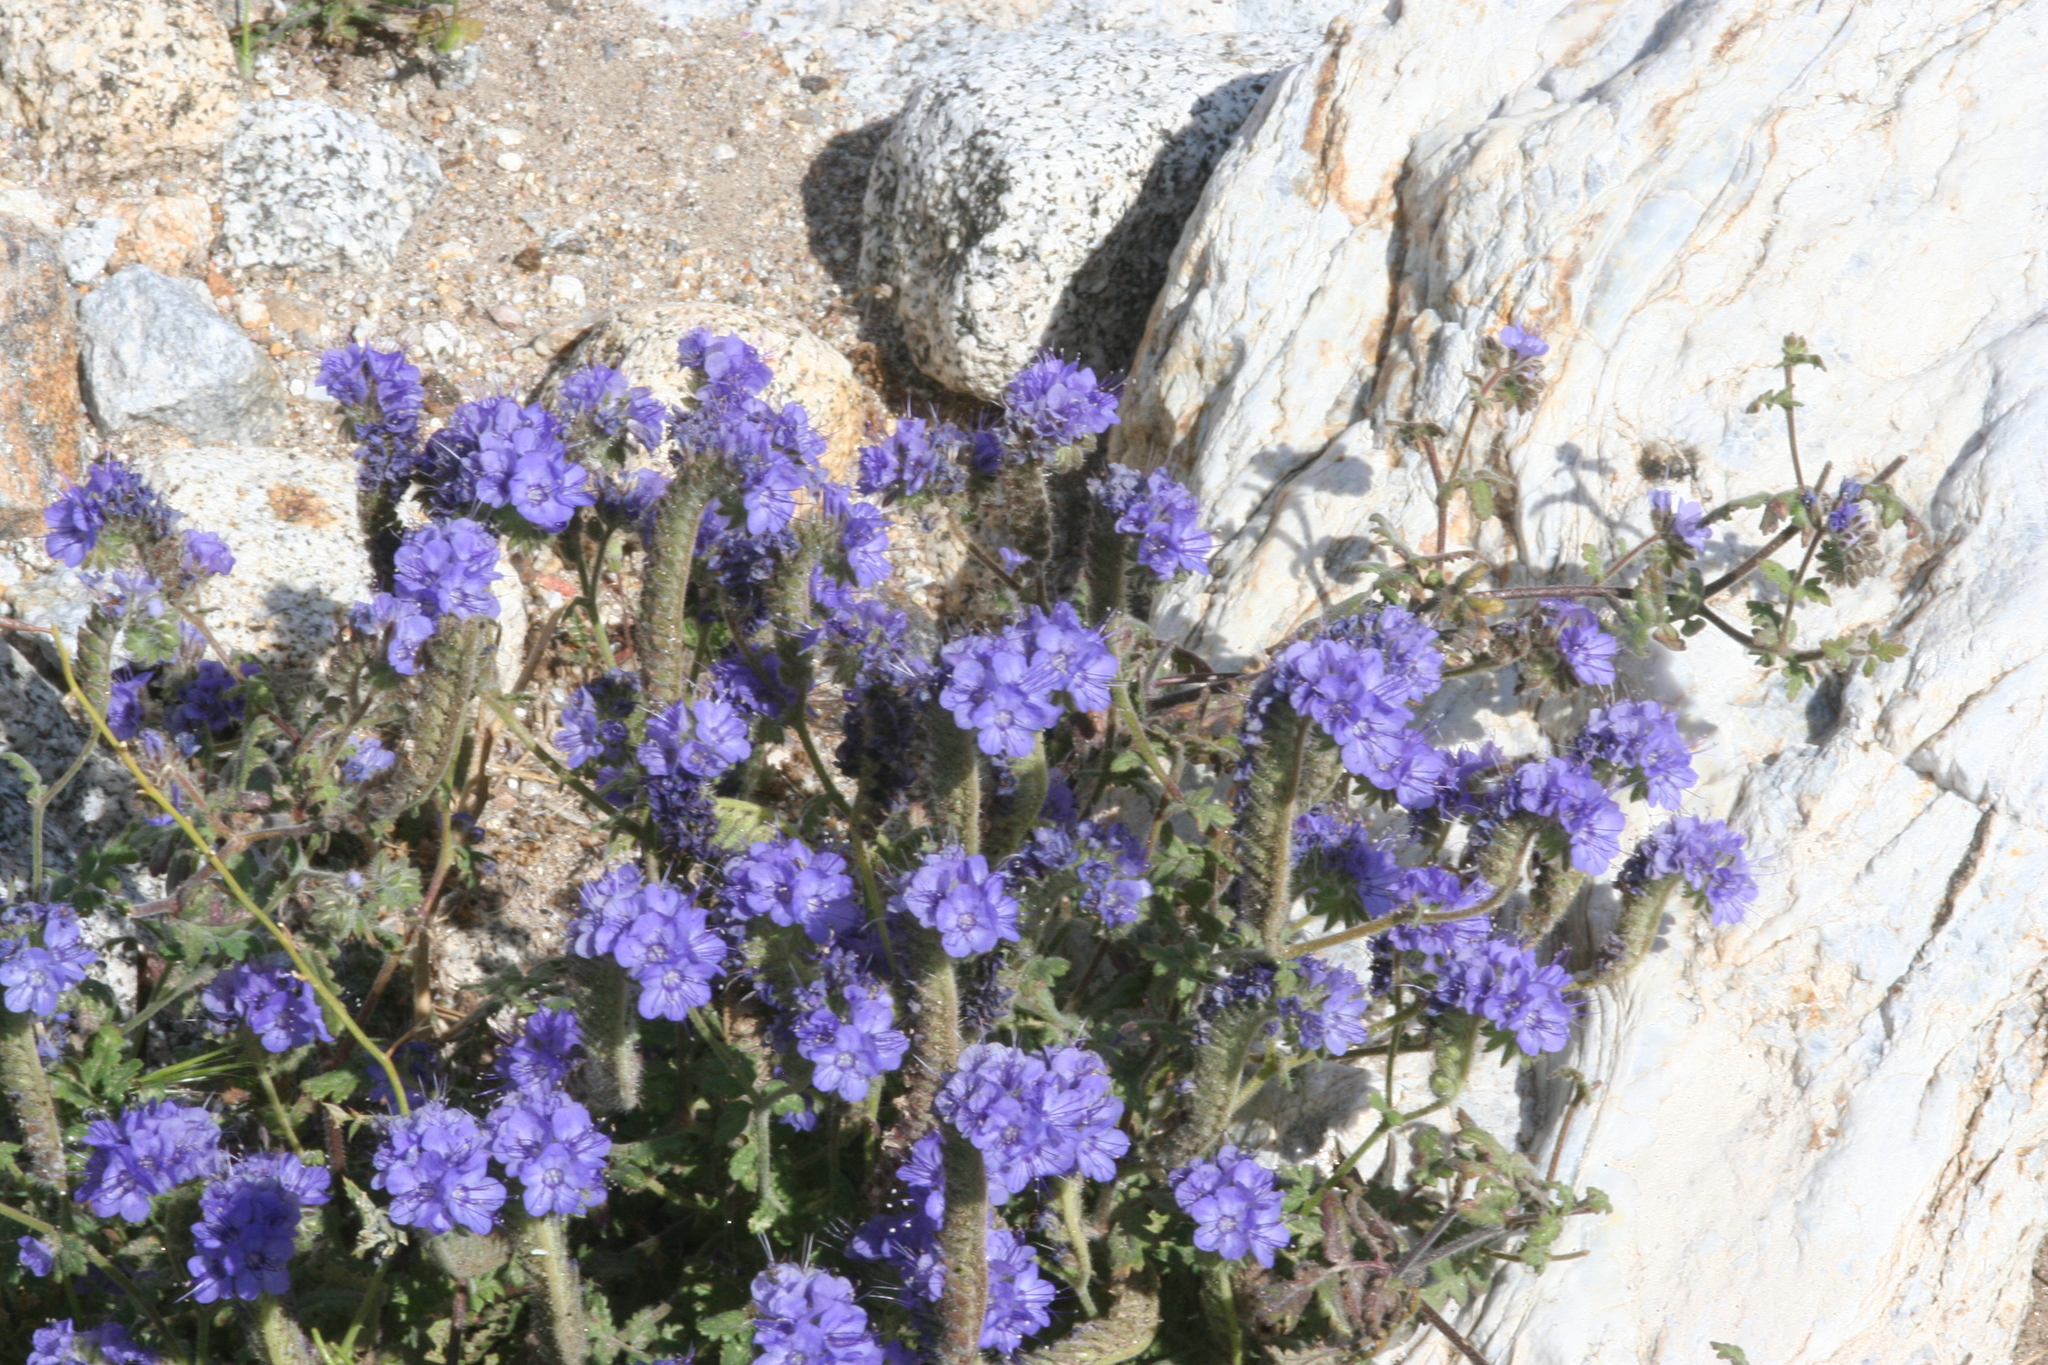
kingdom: Plantae
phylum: Tracheophyta
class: Magnoliopsida
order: Boraginales
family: Hydrophyllaceae
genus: Phacelia
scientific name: Phacelia distans
